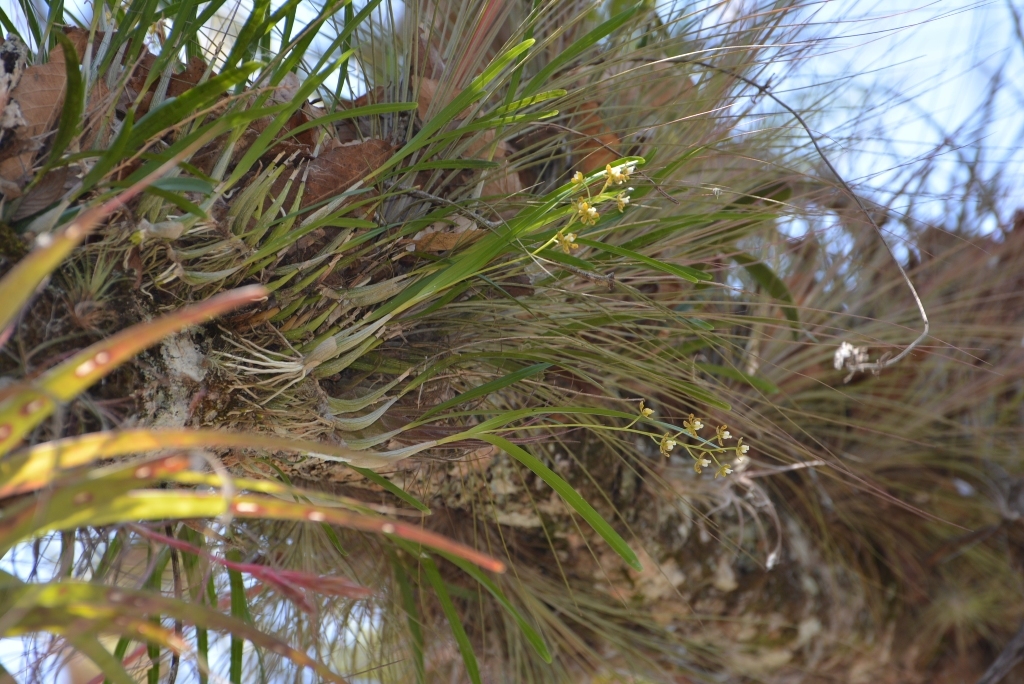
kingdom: Plantae
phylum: Tracheophyta
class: Liliopsida
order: Asparagales
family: Orchidaceae
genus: Prosthechea
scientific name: Prosthechea ochracea
